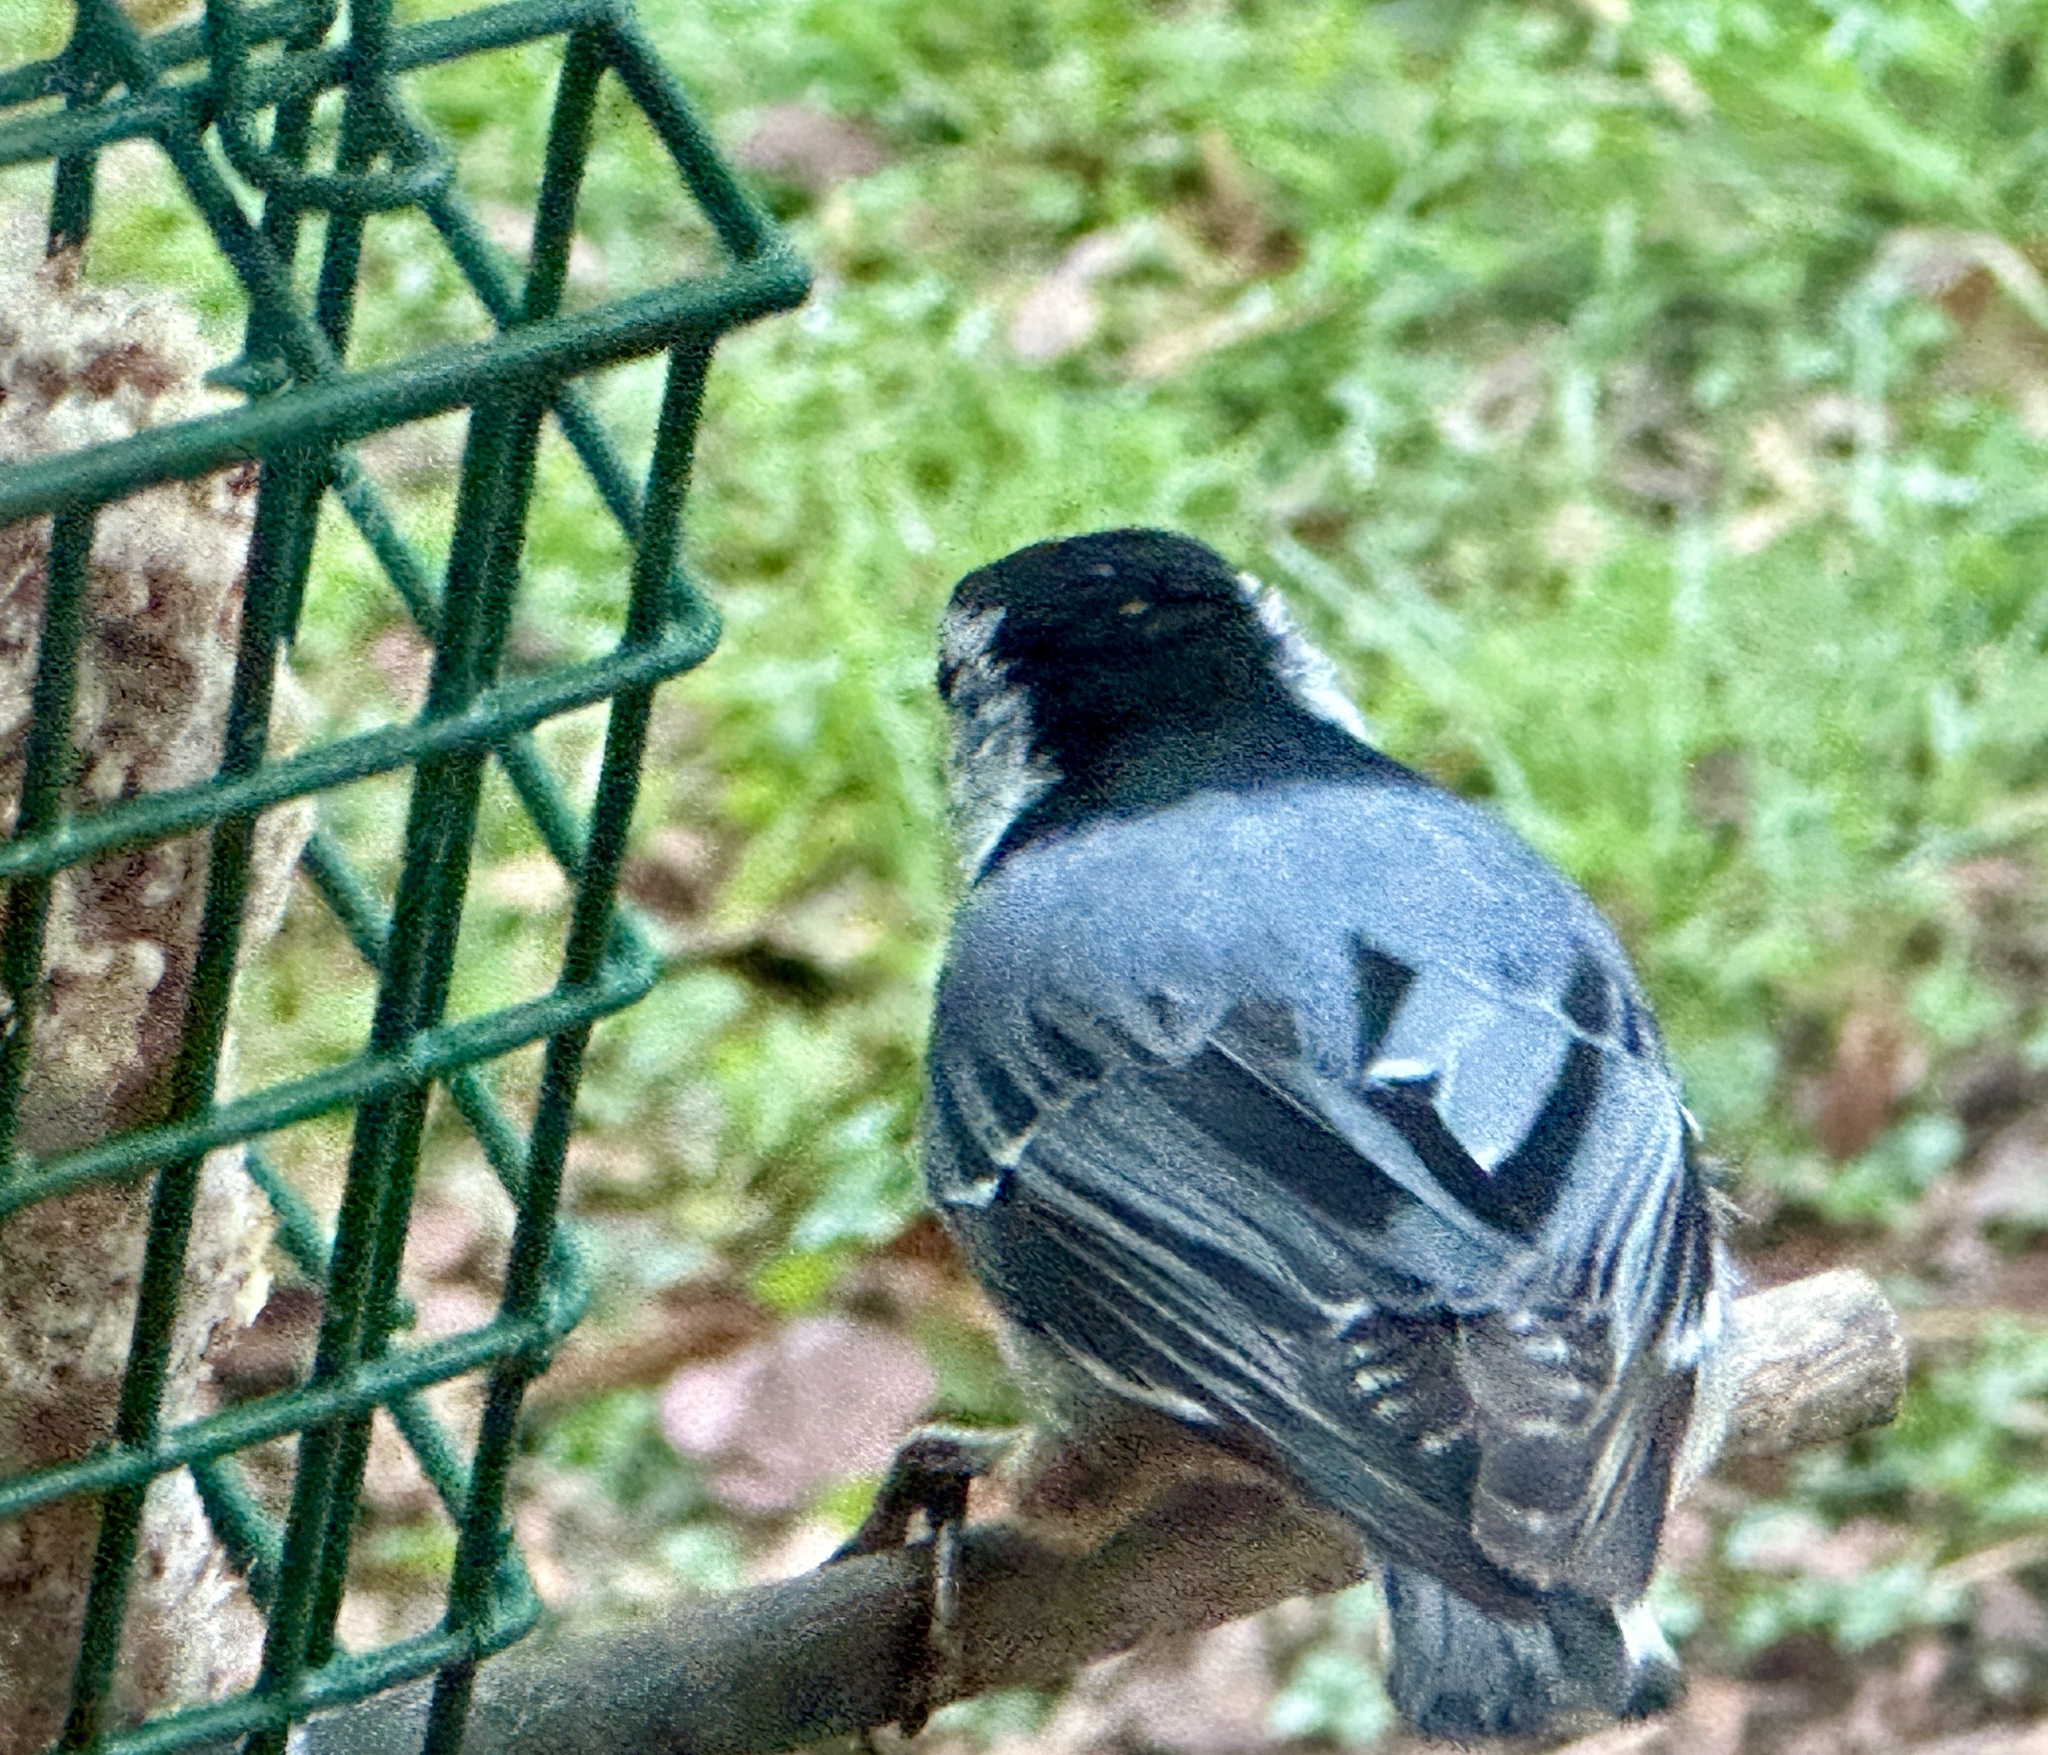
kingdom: Animalia
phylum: Chordata
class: Aves
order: Passeriformes
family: Sittidae
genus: Sitta
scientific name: Sitta carolinensis
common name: White-breasted nuthatch
